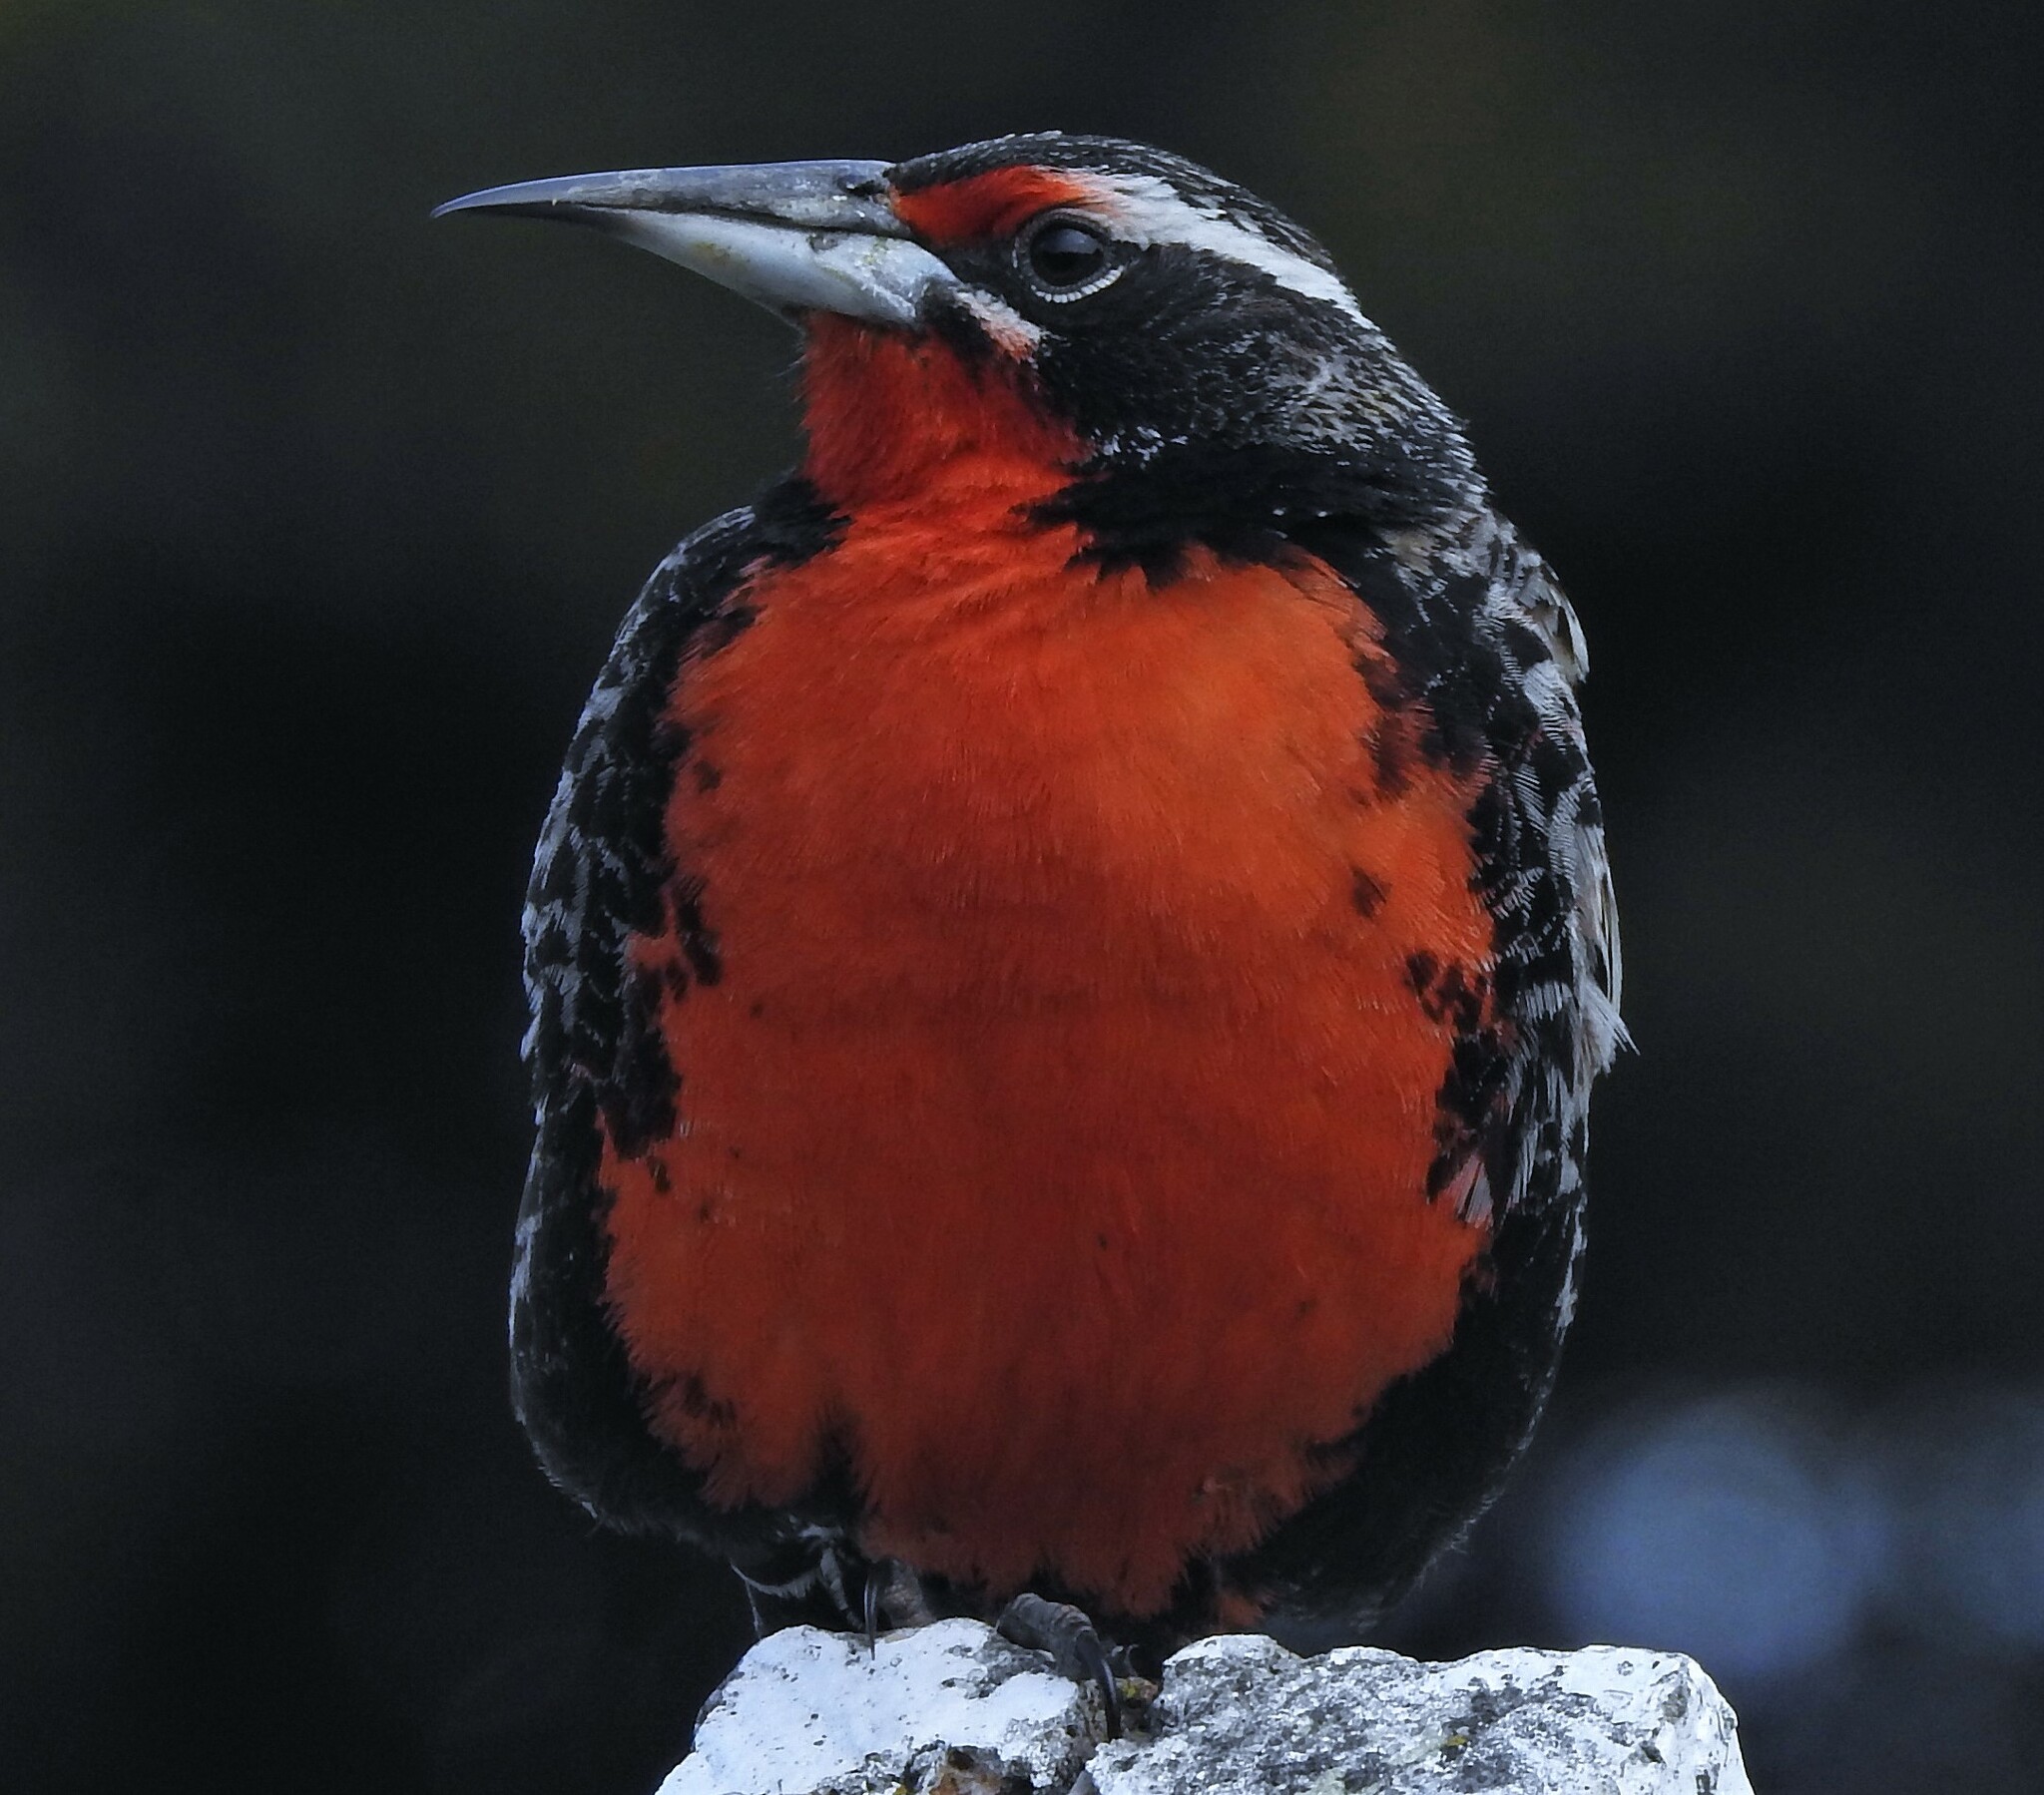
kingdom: Animalia
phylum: Chordata
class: Aves
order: Passeriformes
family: Icteridae
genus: Sturnella
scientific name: Sturnella loyca
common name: Long-tailed meadowlark
